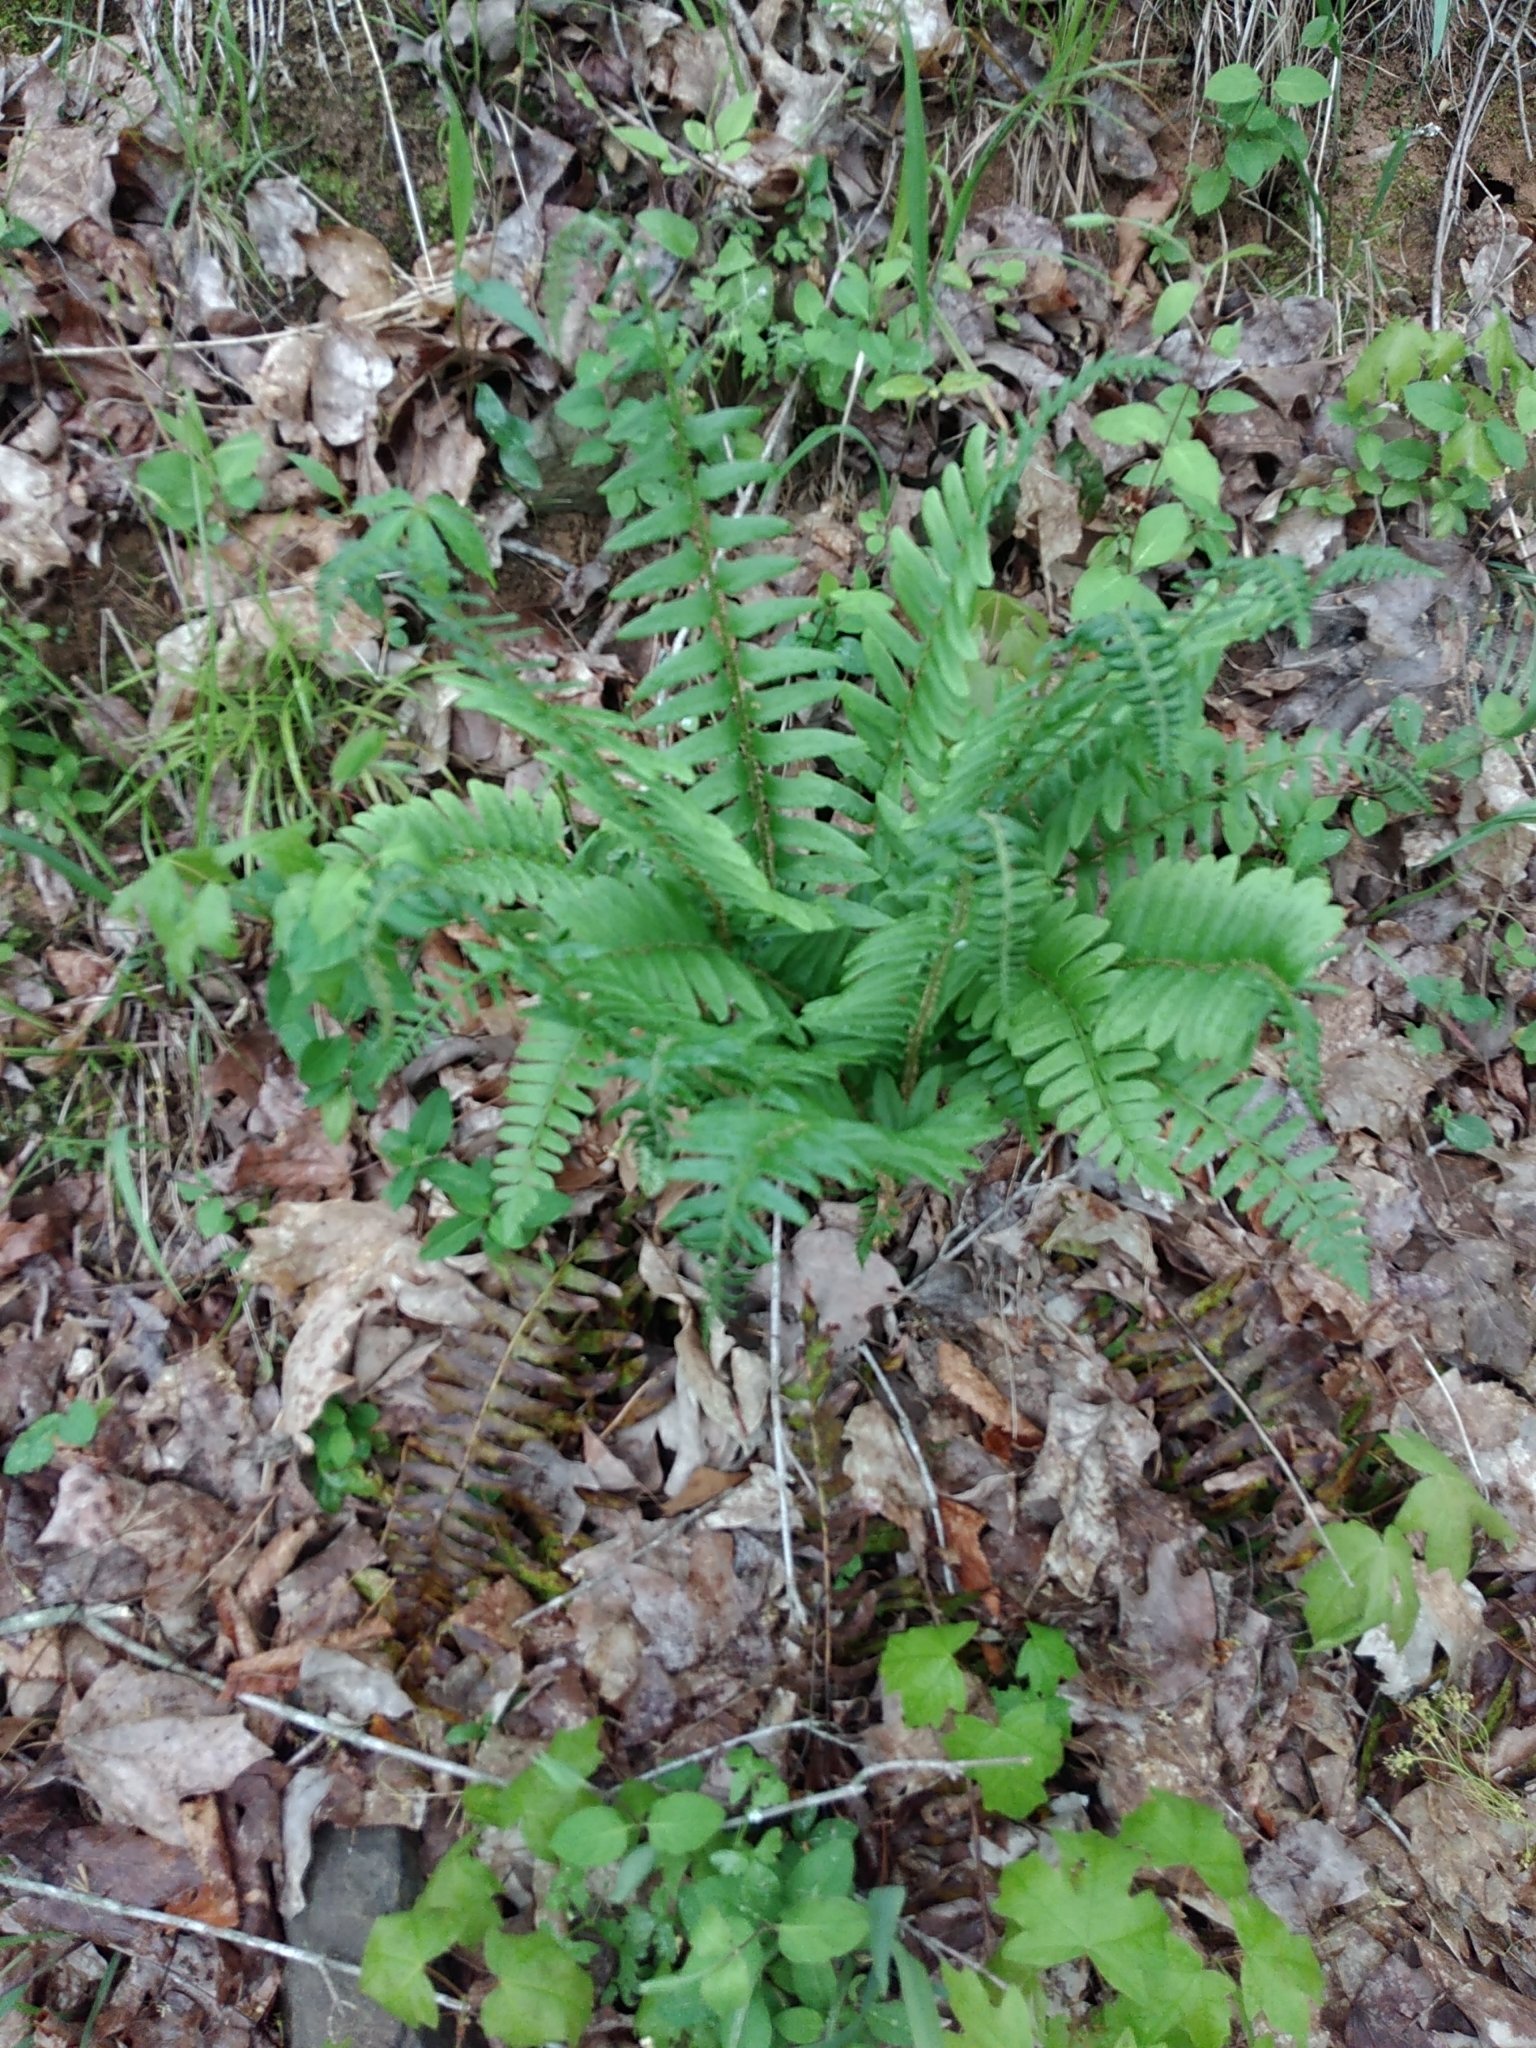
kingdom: Plantae
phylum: Tracheophyta
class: Polypodiopsida
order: Polypodiales
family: Dryopteridaceae
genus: Polystichum
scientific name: Polystichum acrostichoides
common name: Christmas fern
